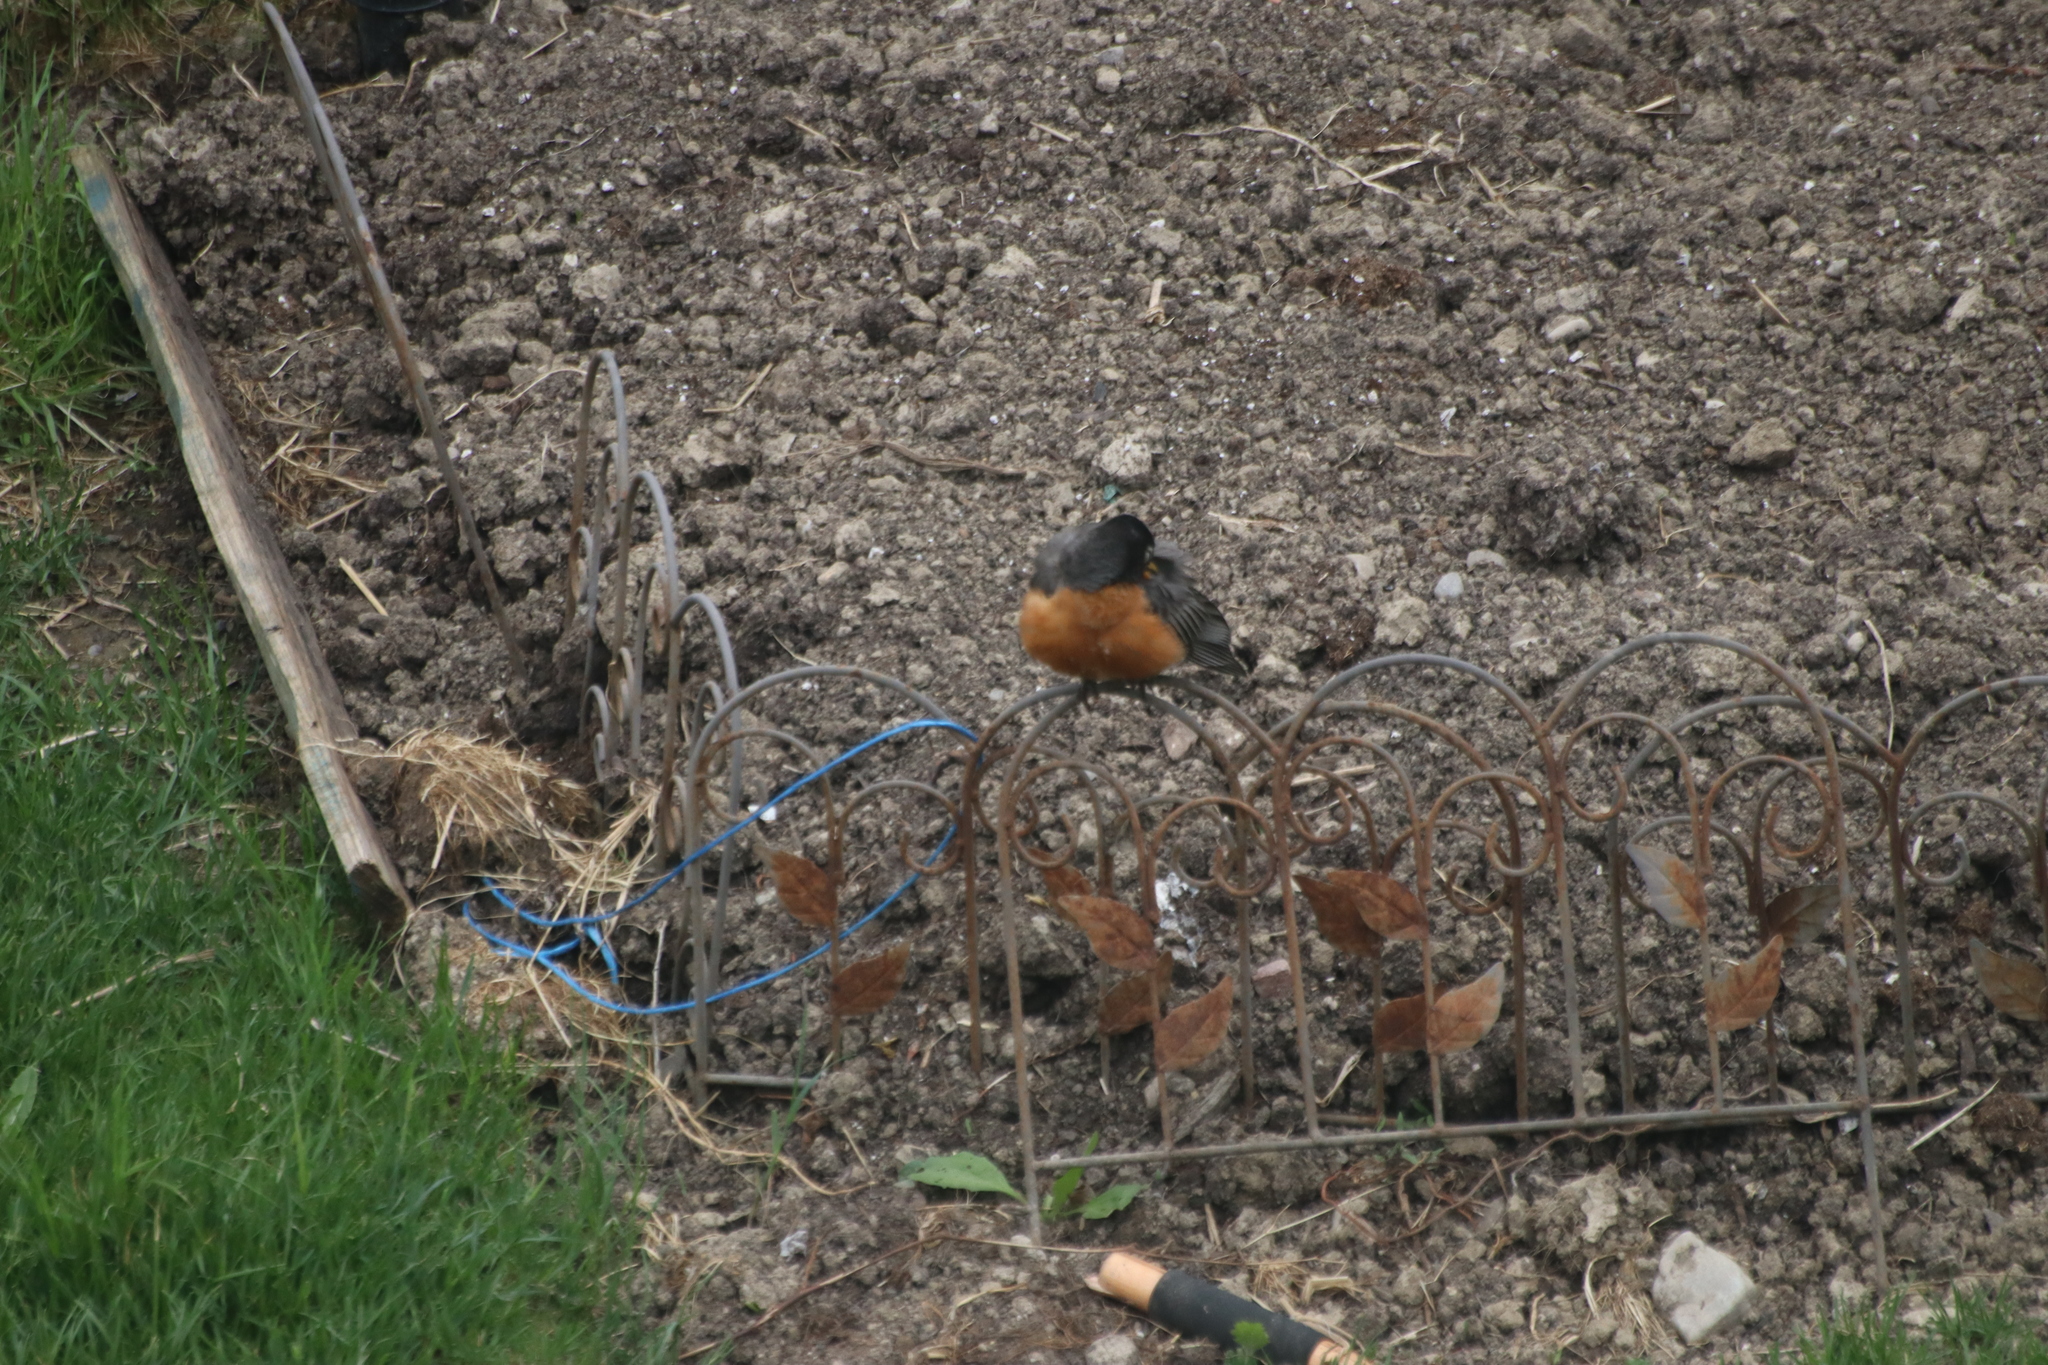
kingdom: Animalia
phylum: Chordata
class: Aves
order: Passeriformes
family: Turdidae
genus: Turdus
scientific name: Turdus migratorius
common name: American robin
